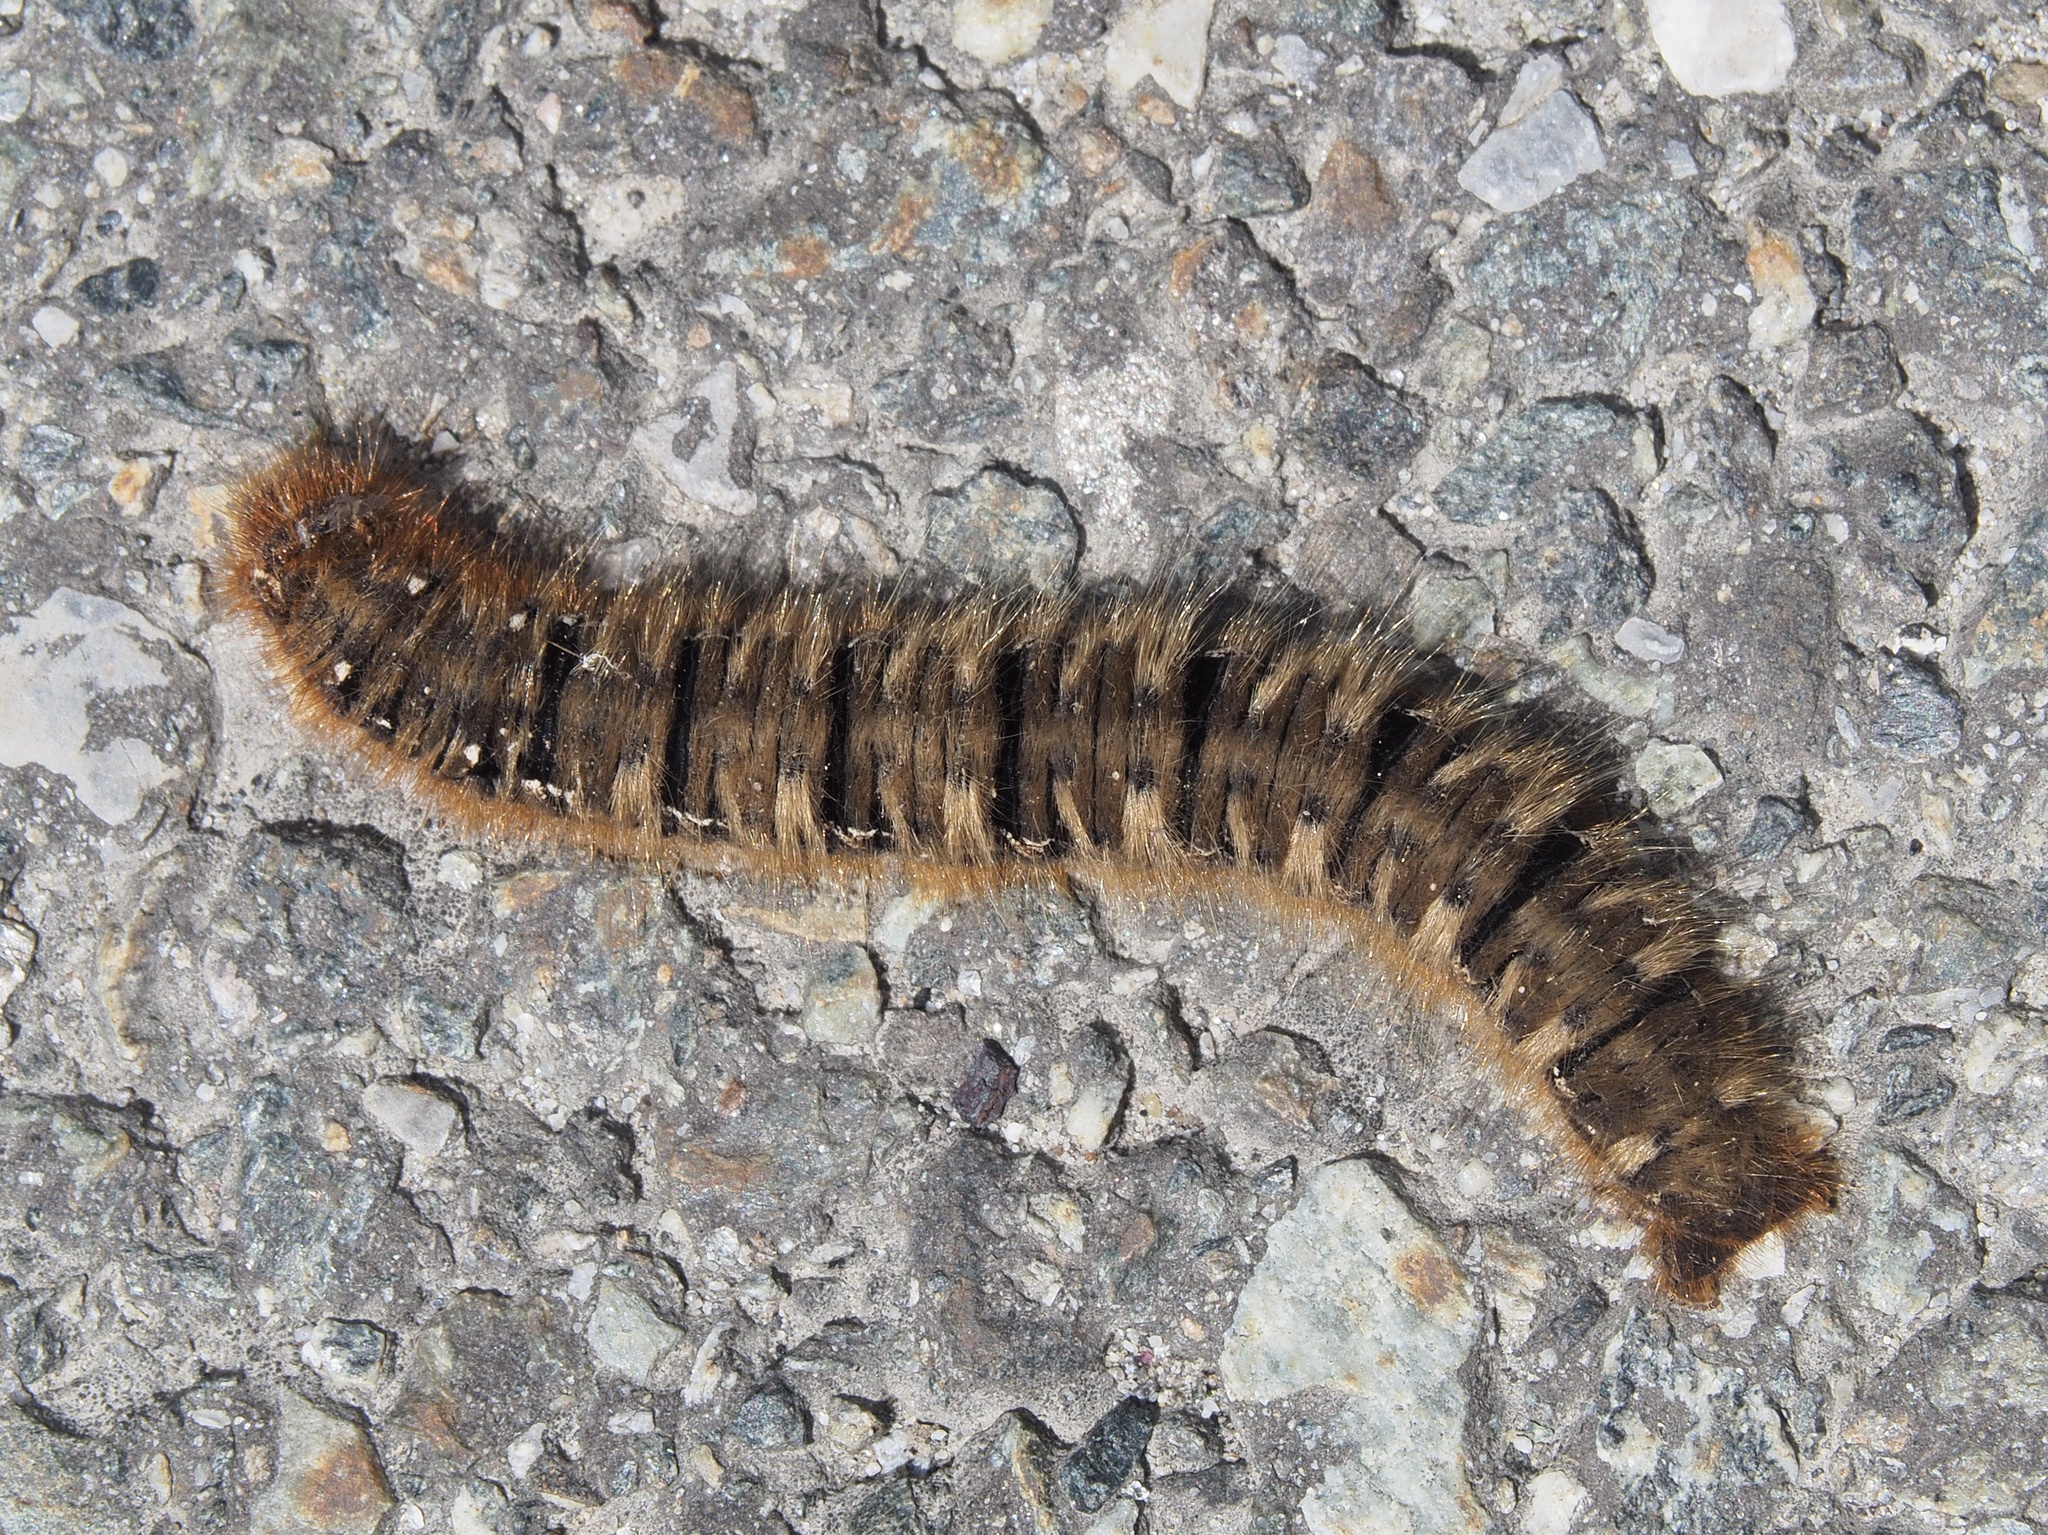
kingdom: Animalia
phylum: Arthropoda
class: Insecta
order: Lepidoptera
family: Lasiocampidae
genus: Lasiocampa
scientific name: Lasiocampa quercus
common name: Oak eggar
